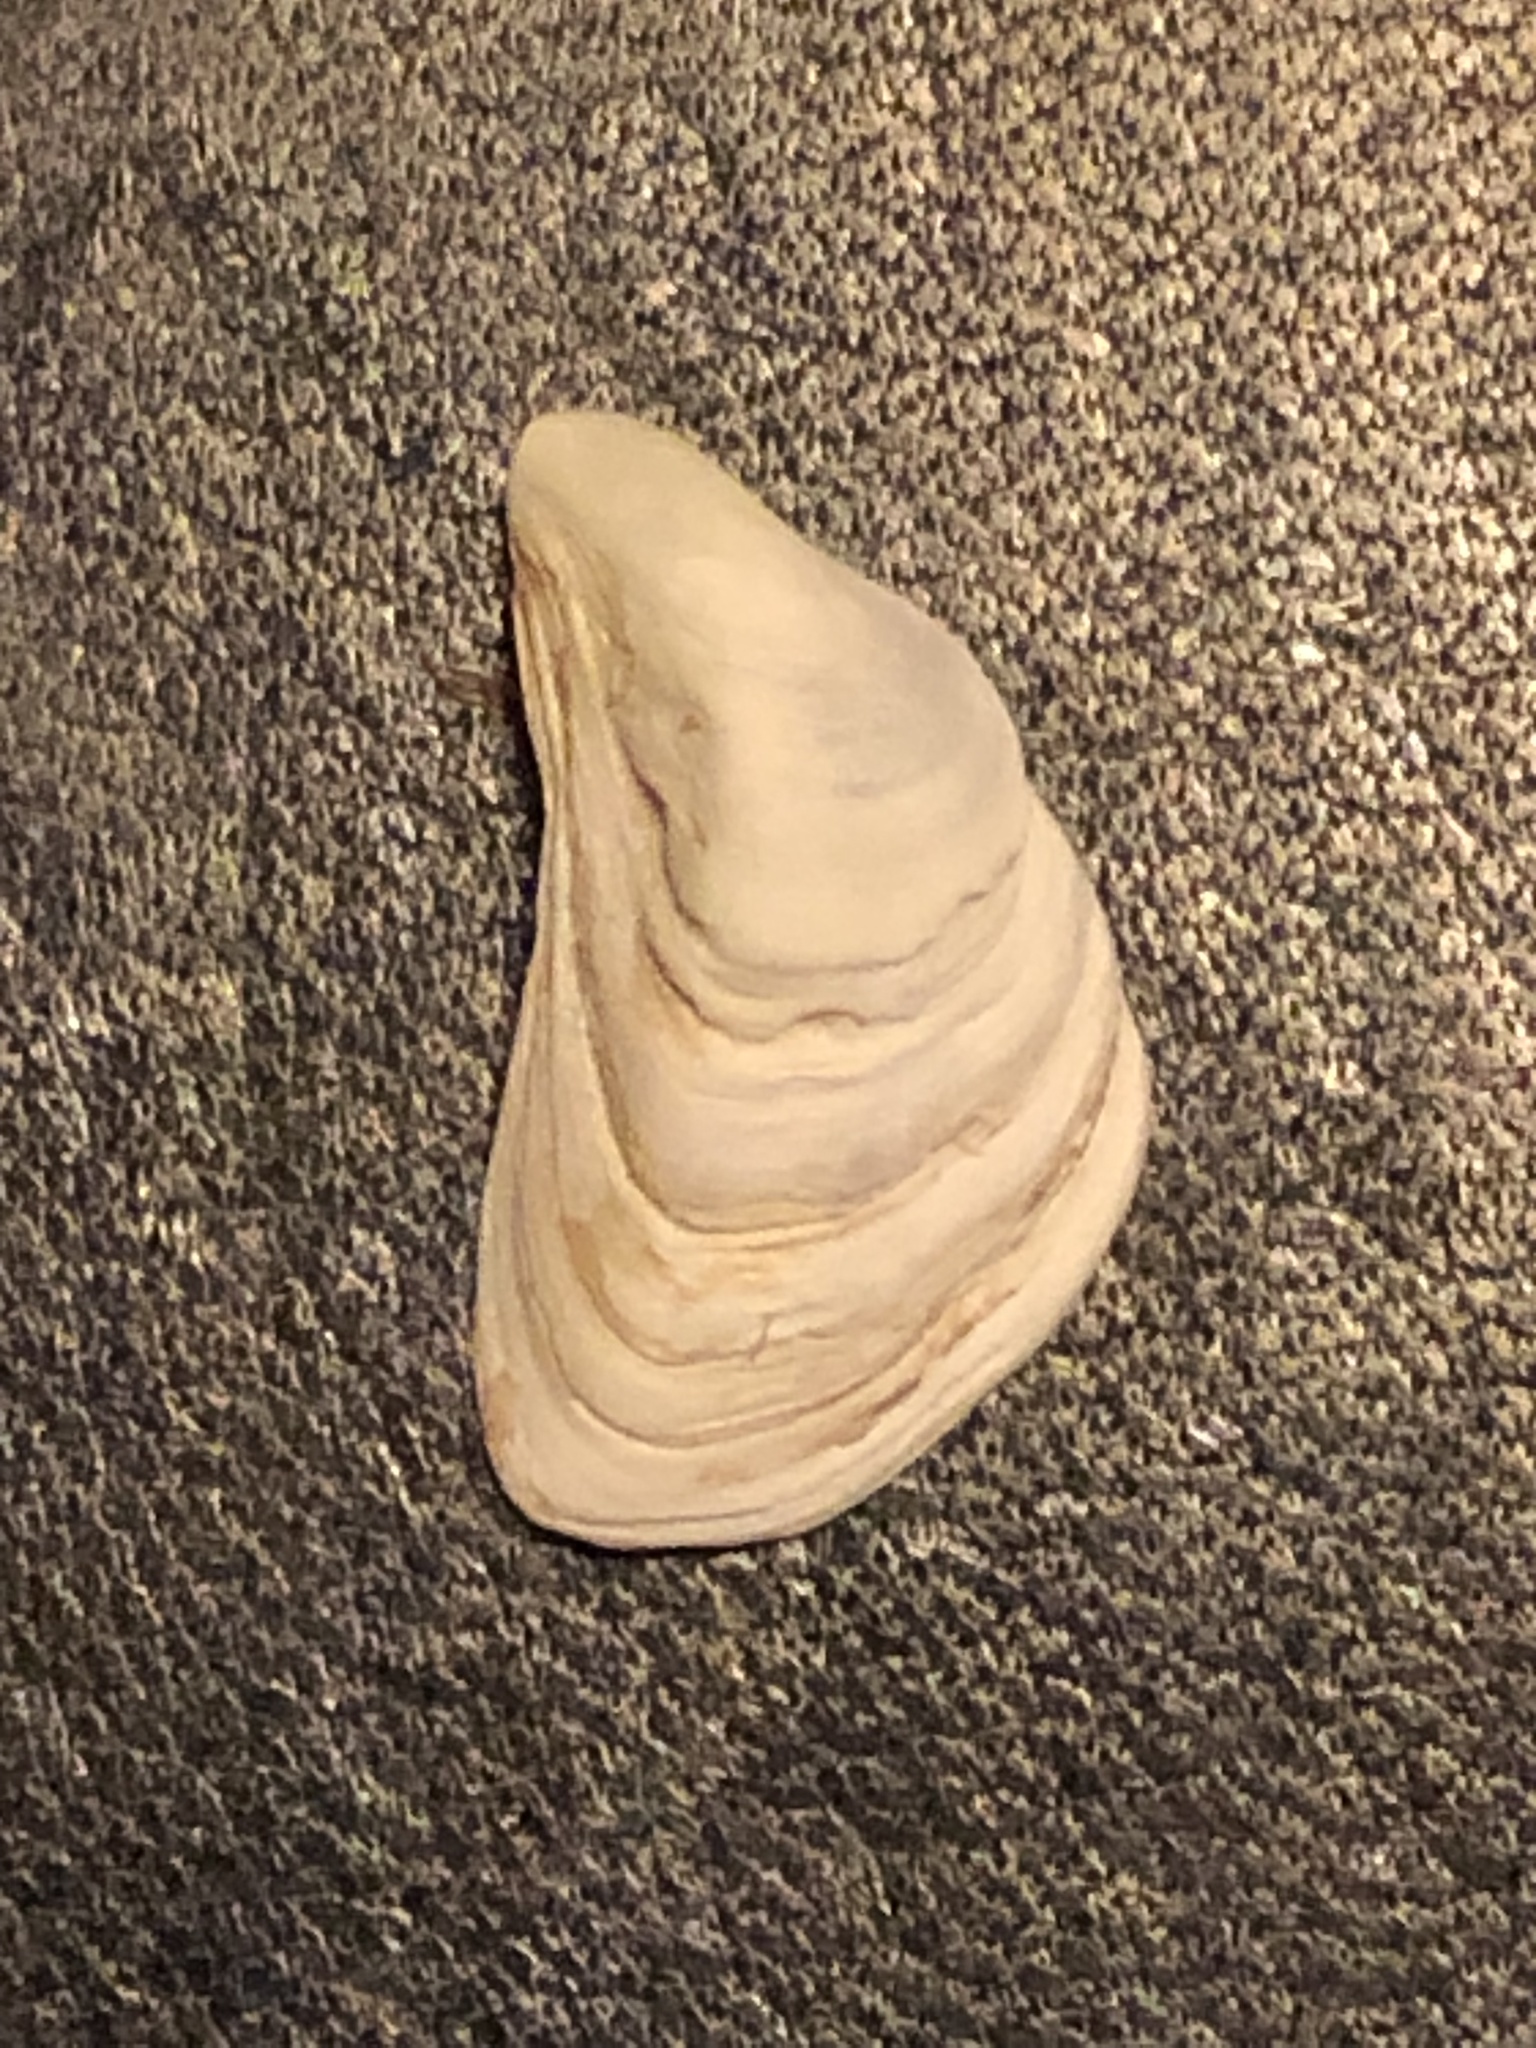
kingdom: Animalia
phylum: Mollusca
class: Bivalvia
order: Myida
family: Dreissenidae
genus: Dreissena
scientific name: Dreissena bugensis
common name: Quagga mussel
